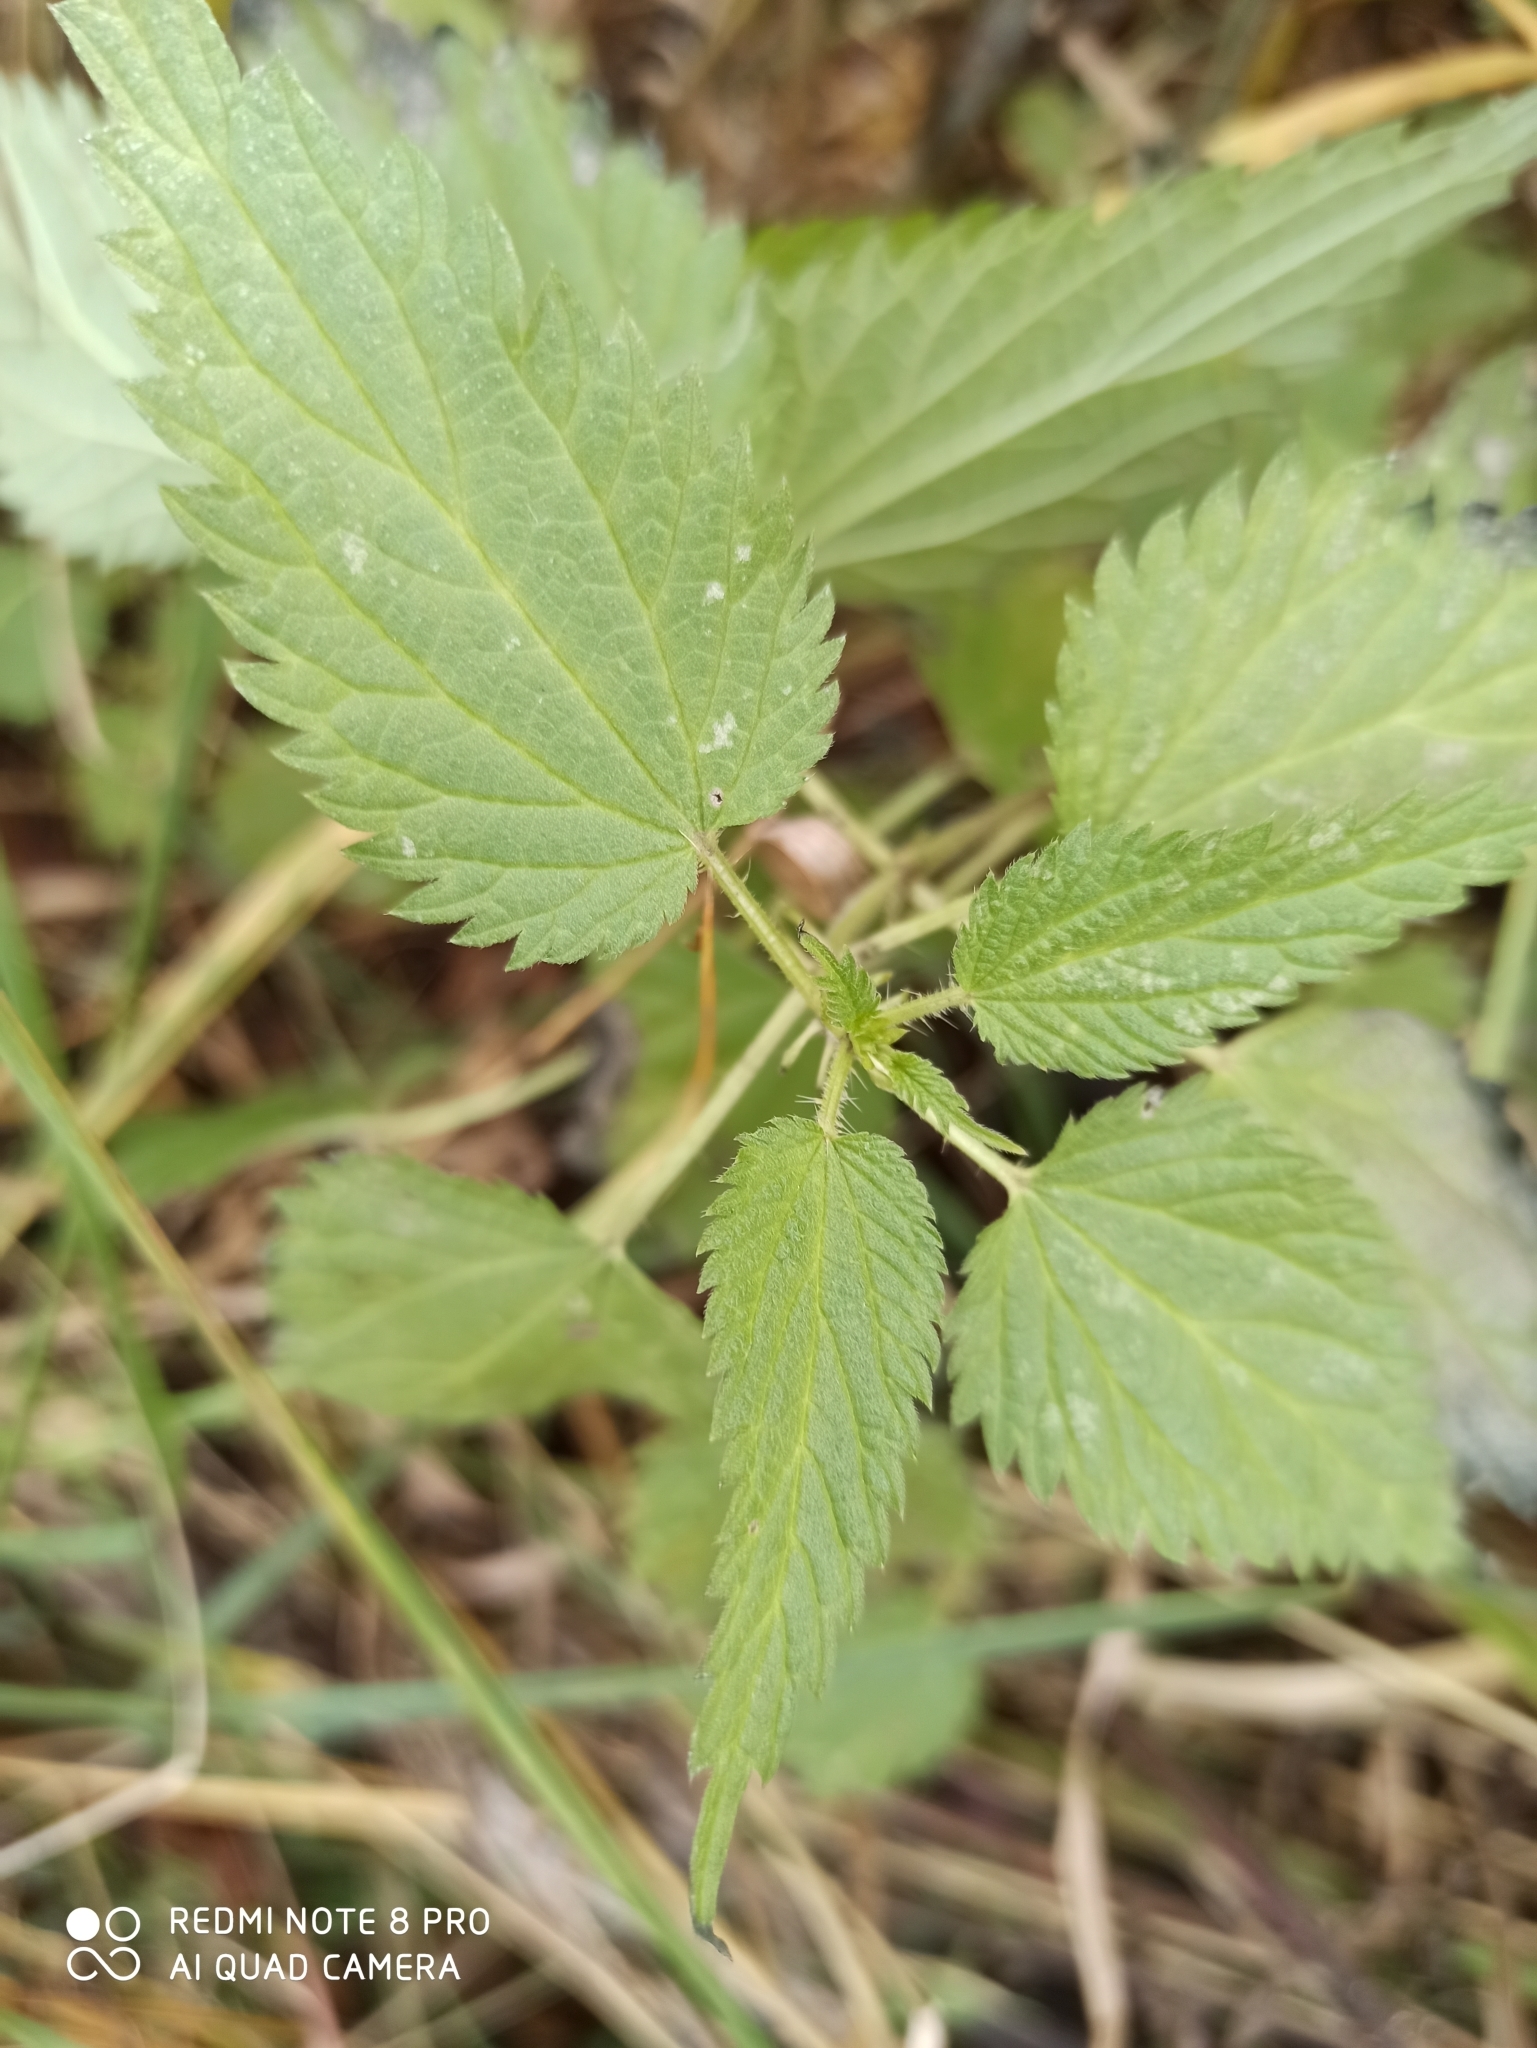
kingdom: Plantae
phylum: Tracheophyta
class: Magnoliopsida
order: Rosales
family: Urticaceae
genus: Urtica
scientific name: Urtica dioica
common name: Common nettle
